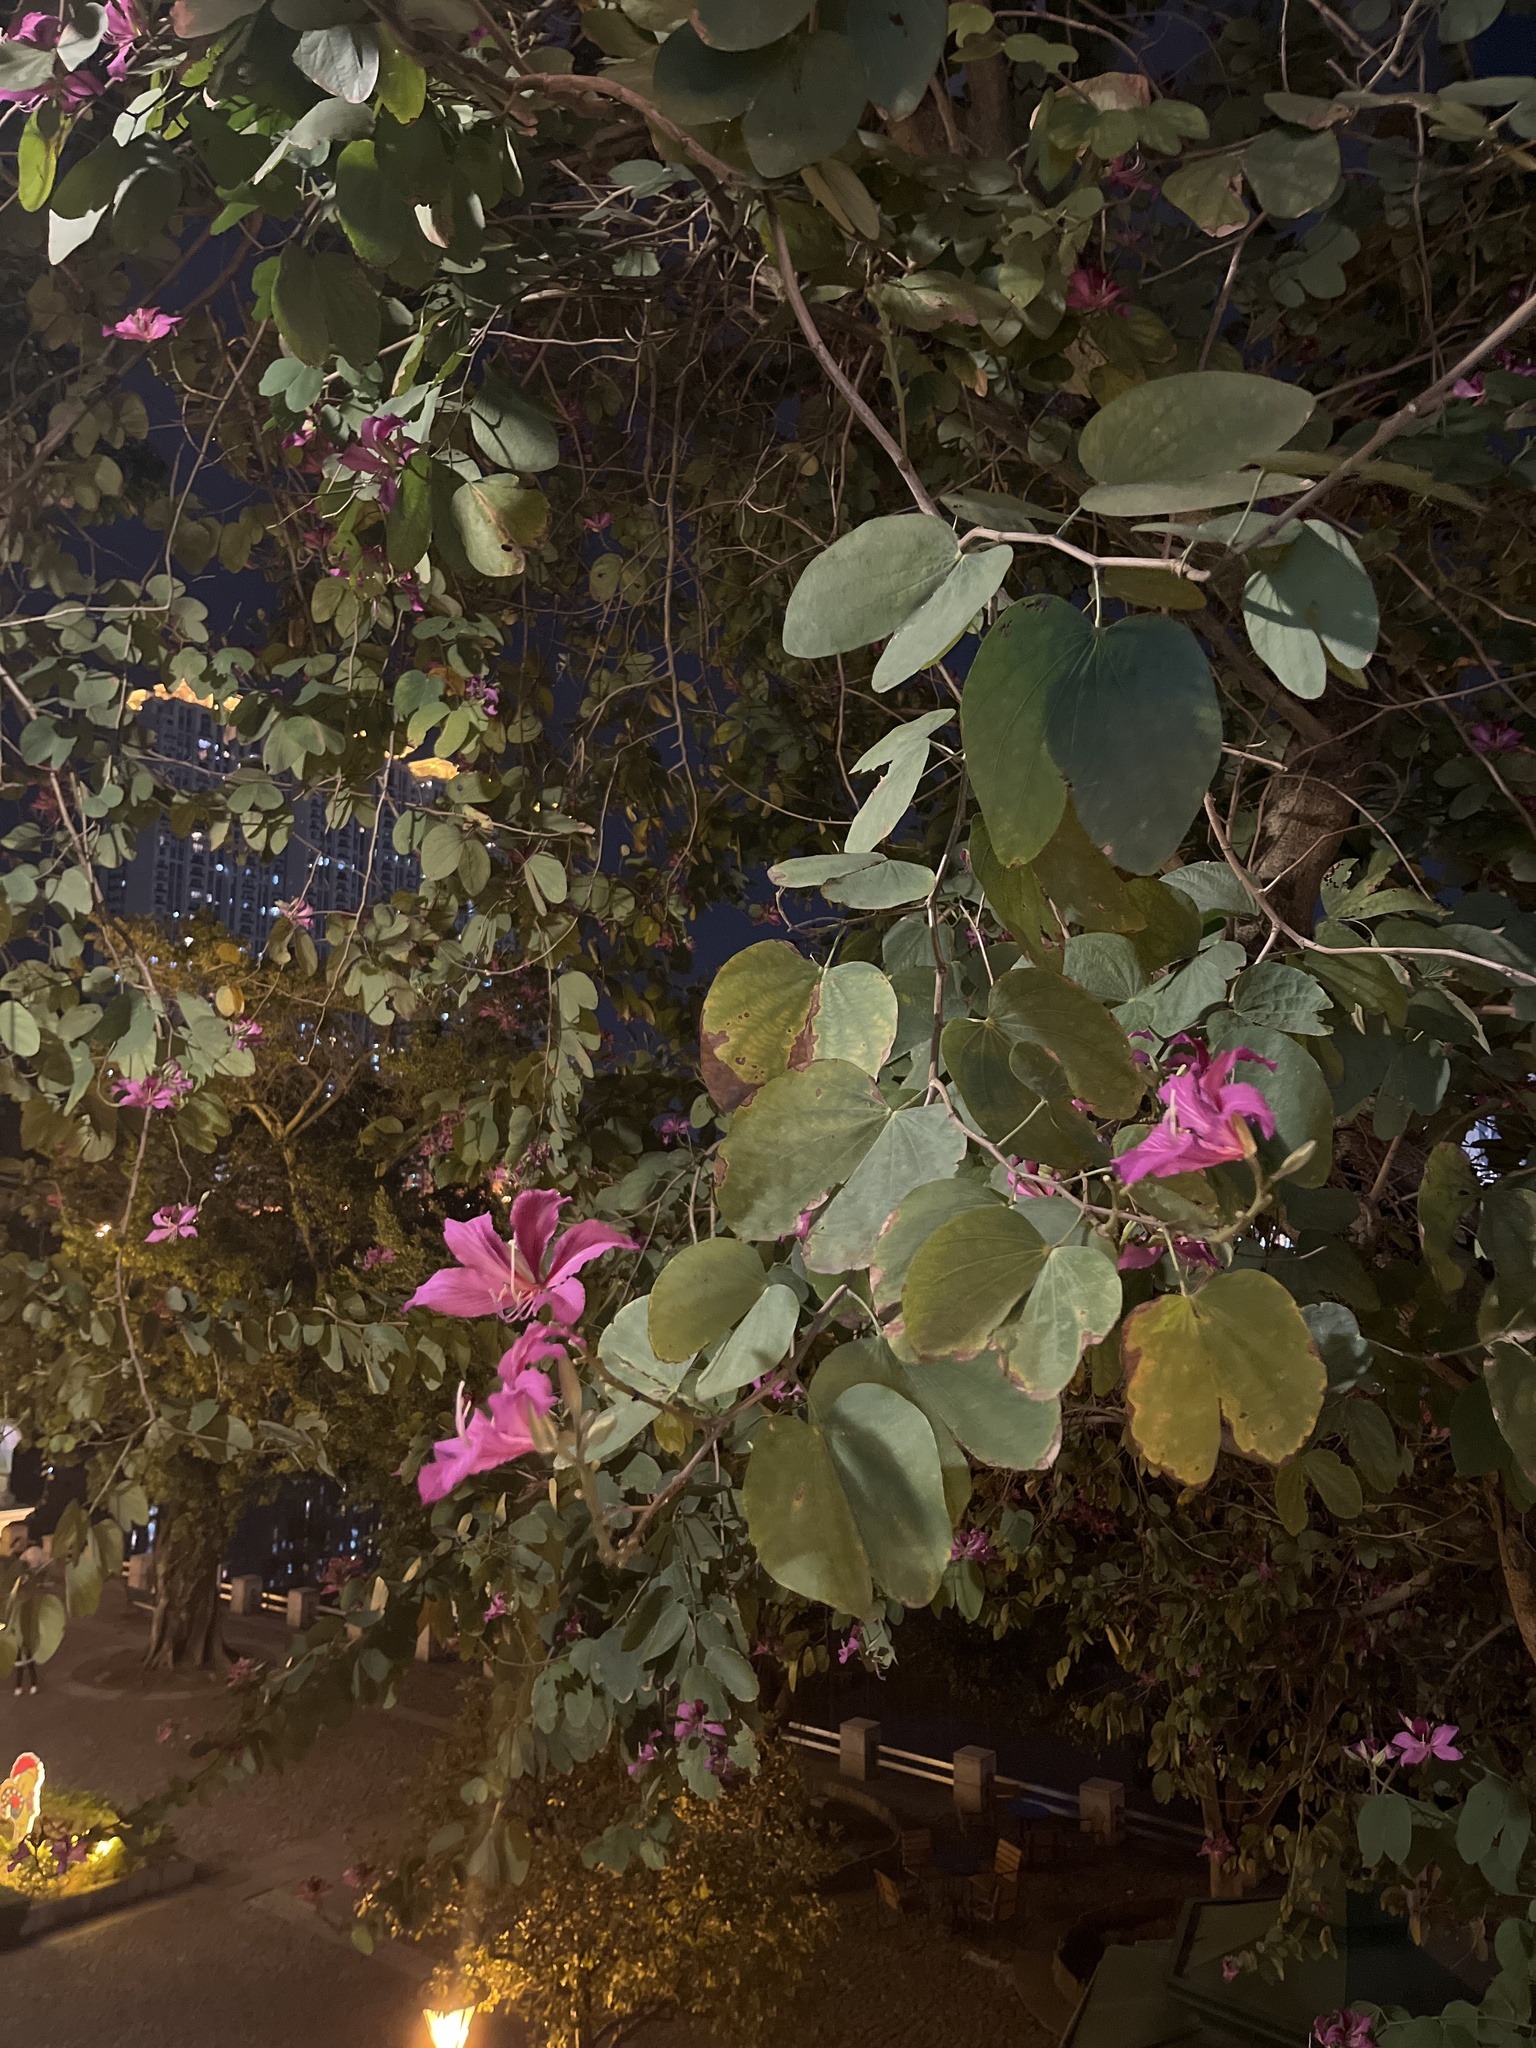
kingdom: Plantae
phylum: Tracheophyta
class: Magnoliopsida
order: Fabales
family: Fabaceae
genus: Bauhinia
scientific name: Bauhinia blakeana
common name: Bauhinia
